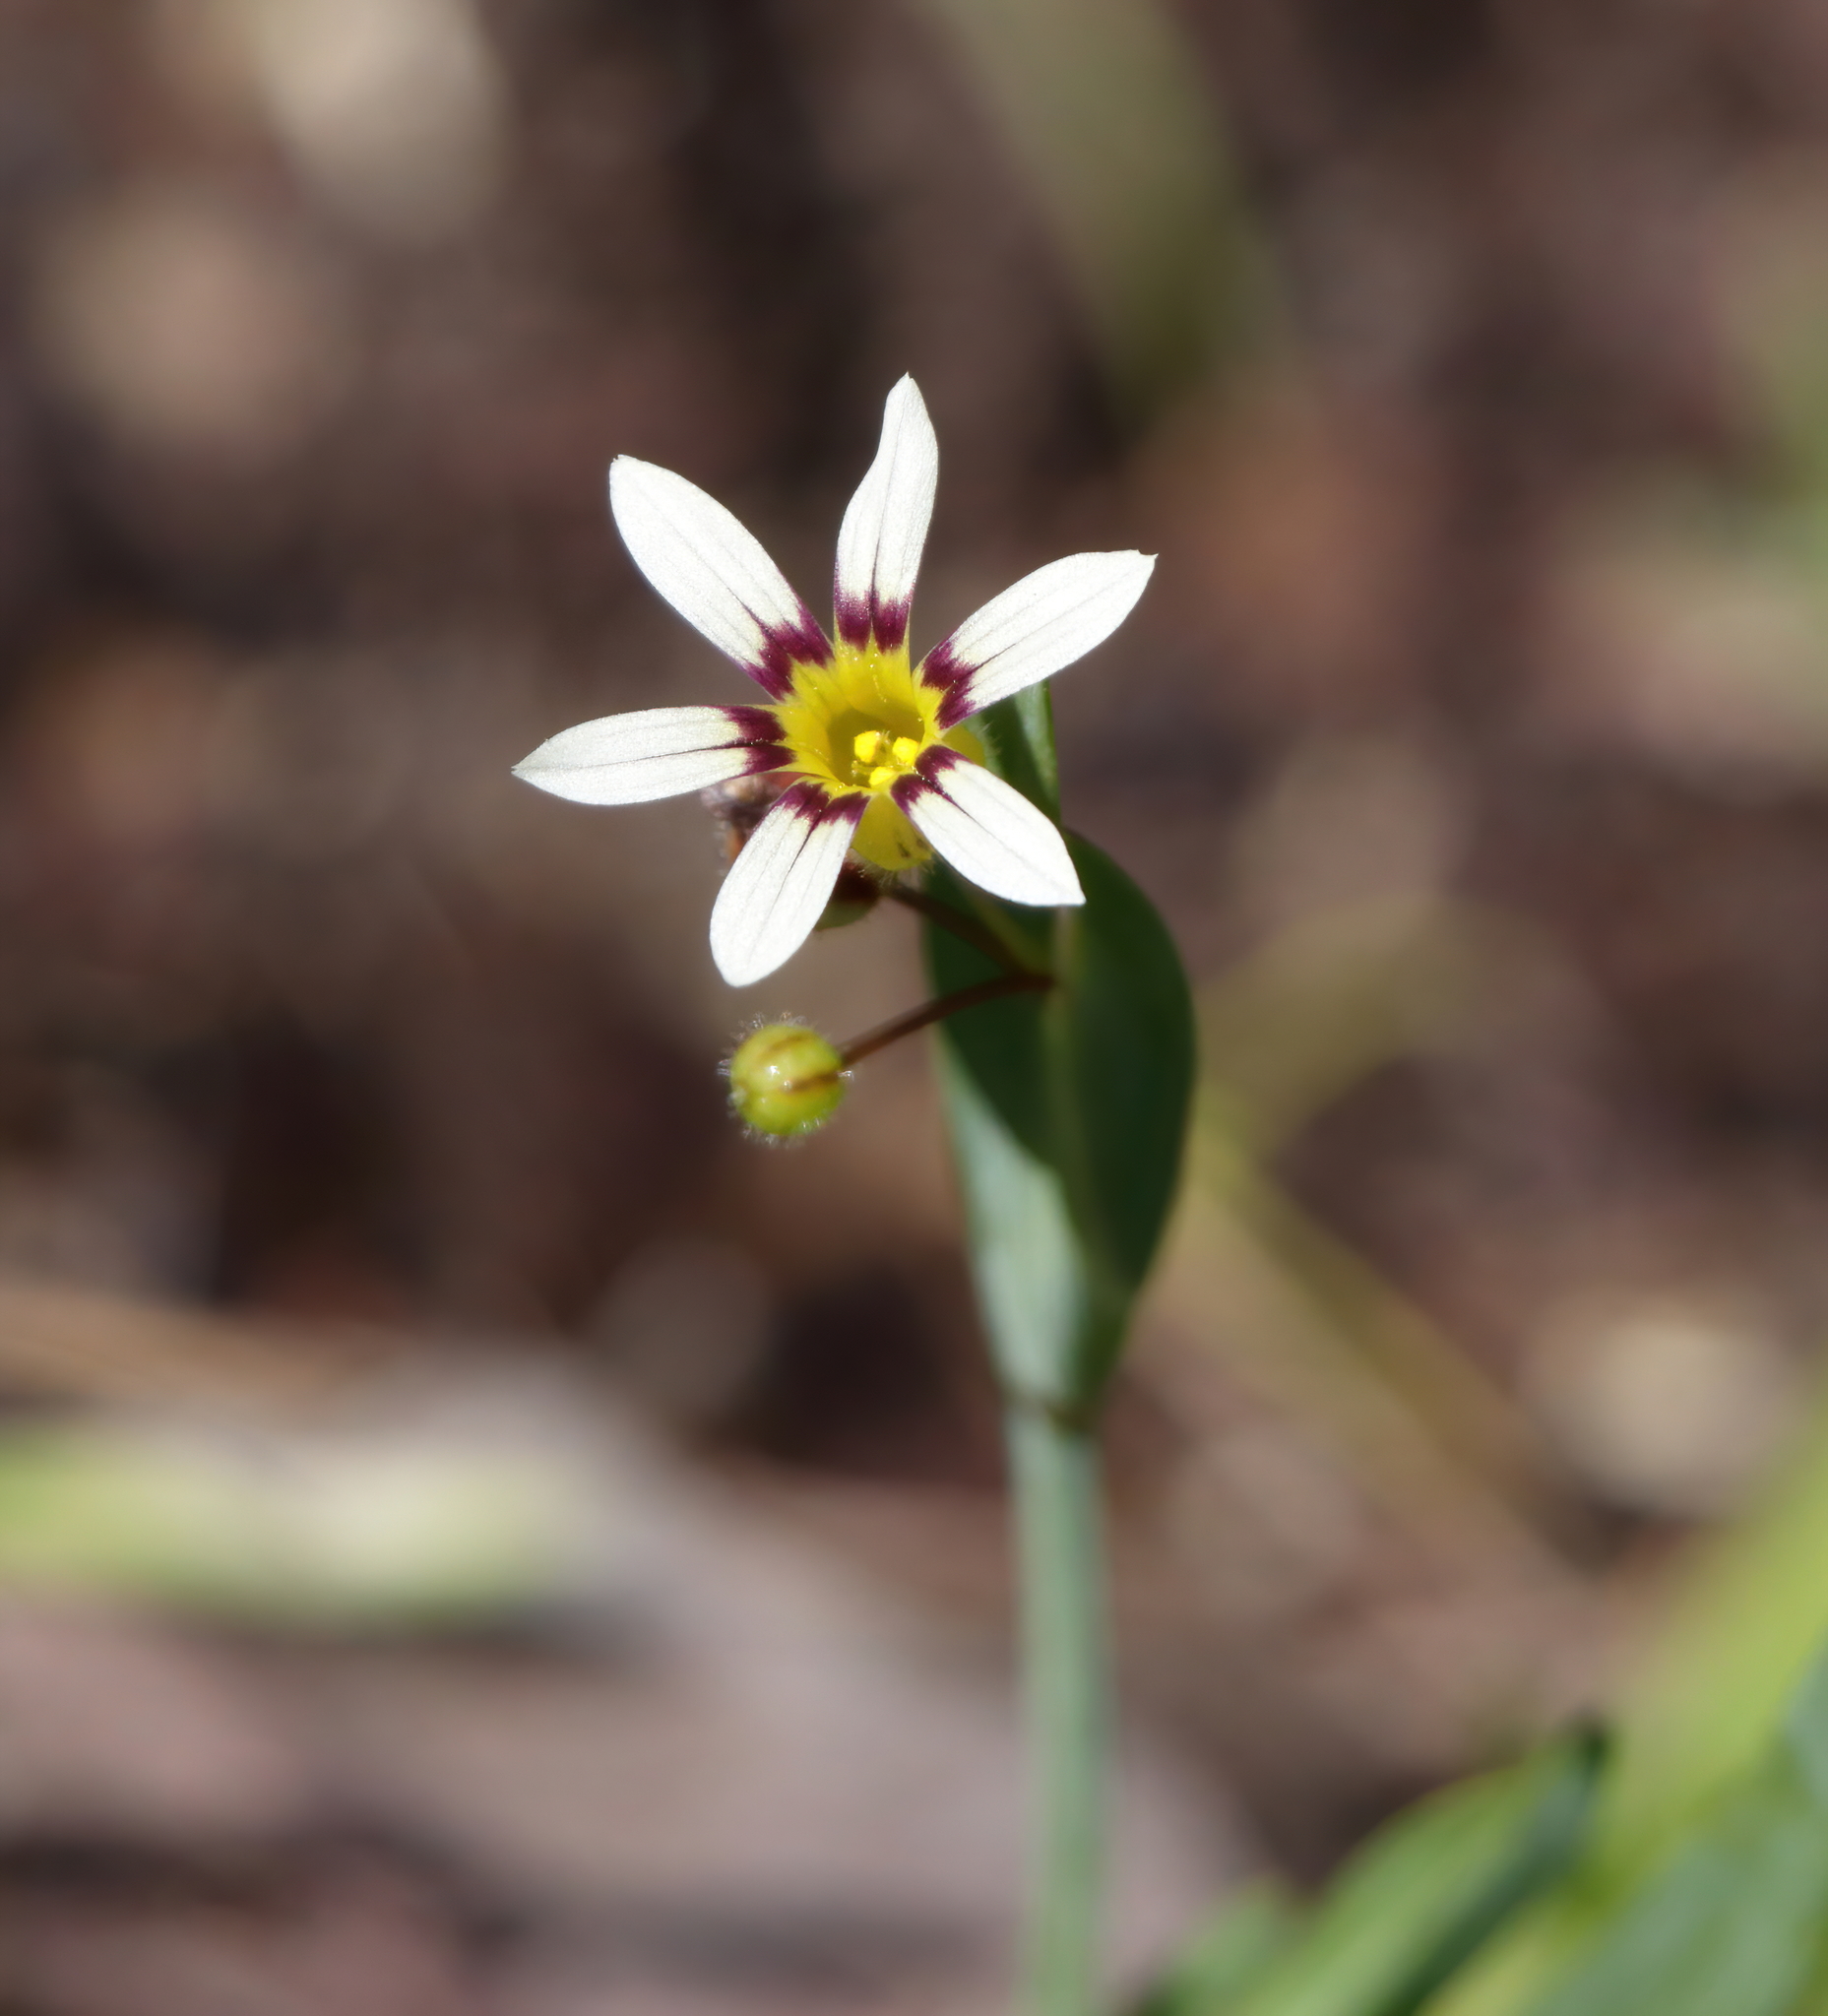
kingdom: Plantae
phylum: Tracheophyta
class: Liliopsida
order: Asparagales
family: Iridaceae
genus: Sisyrinchium
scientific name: Sisyrinchium micranthum
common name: Bermuda pigroot
